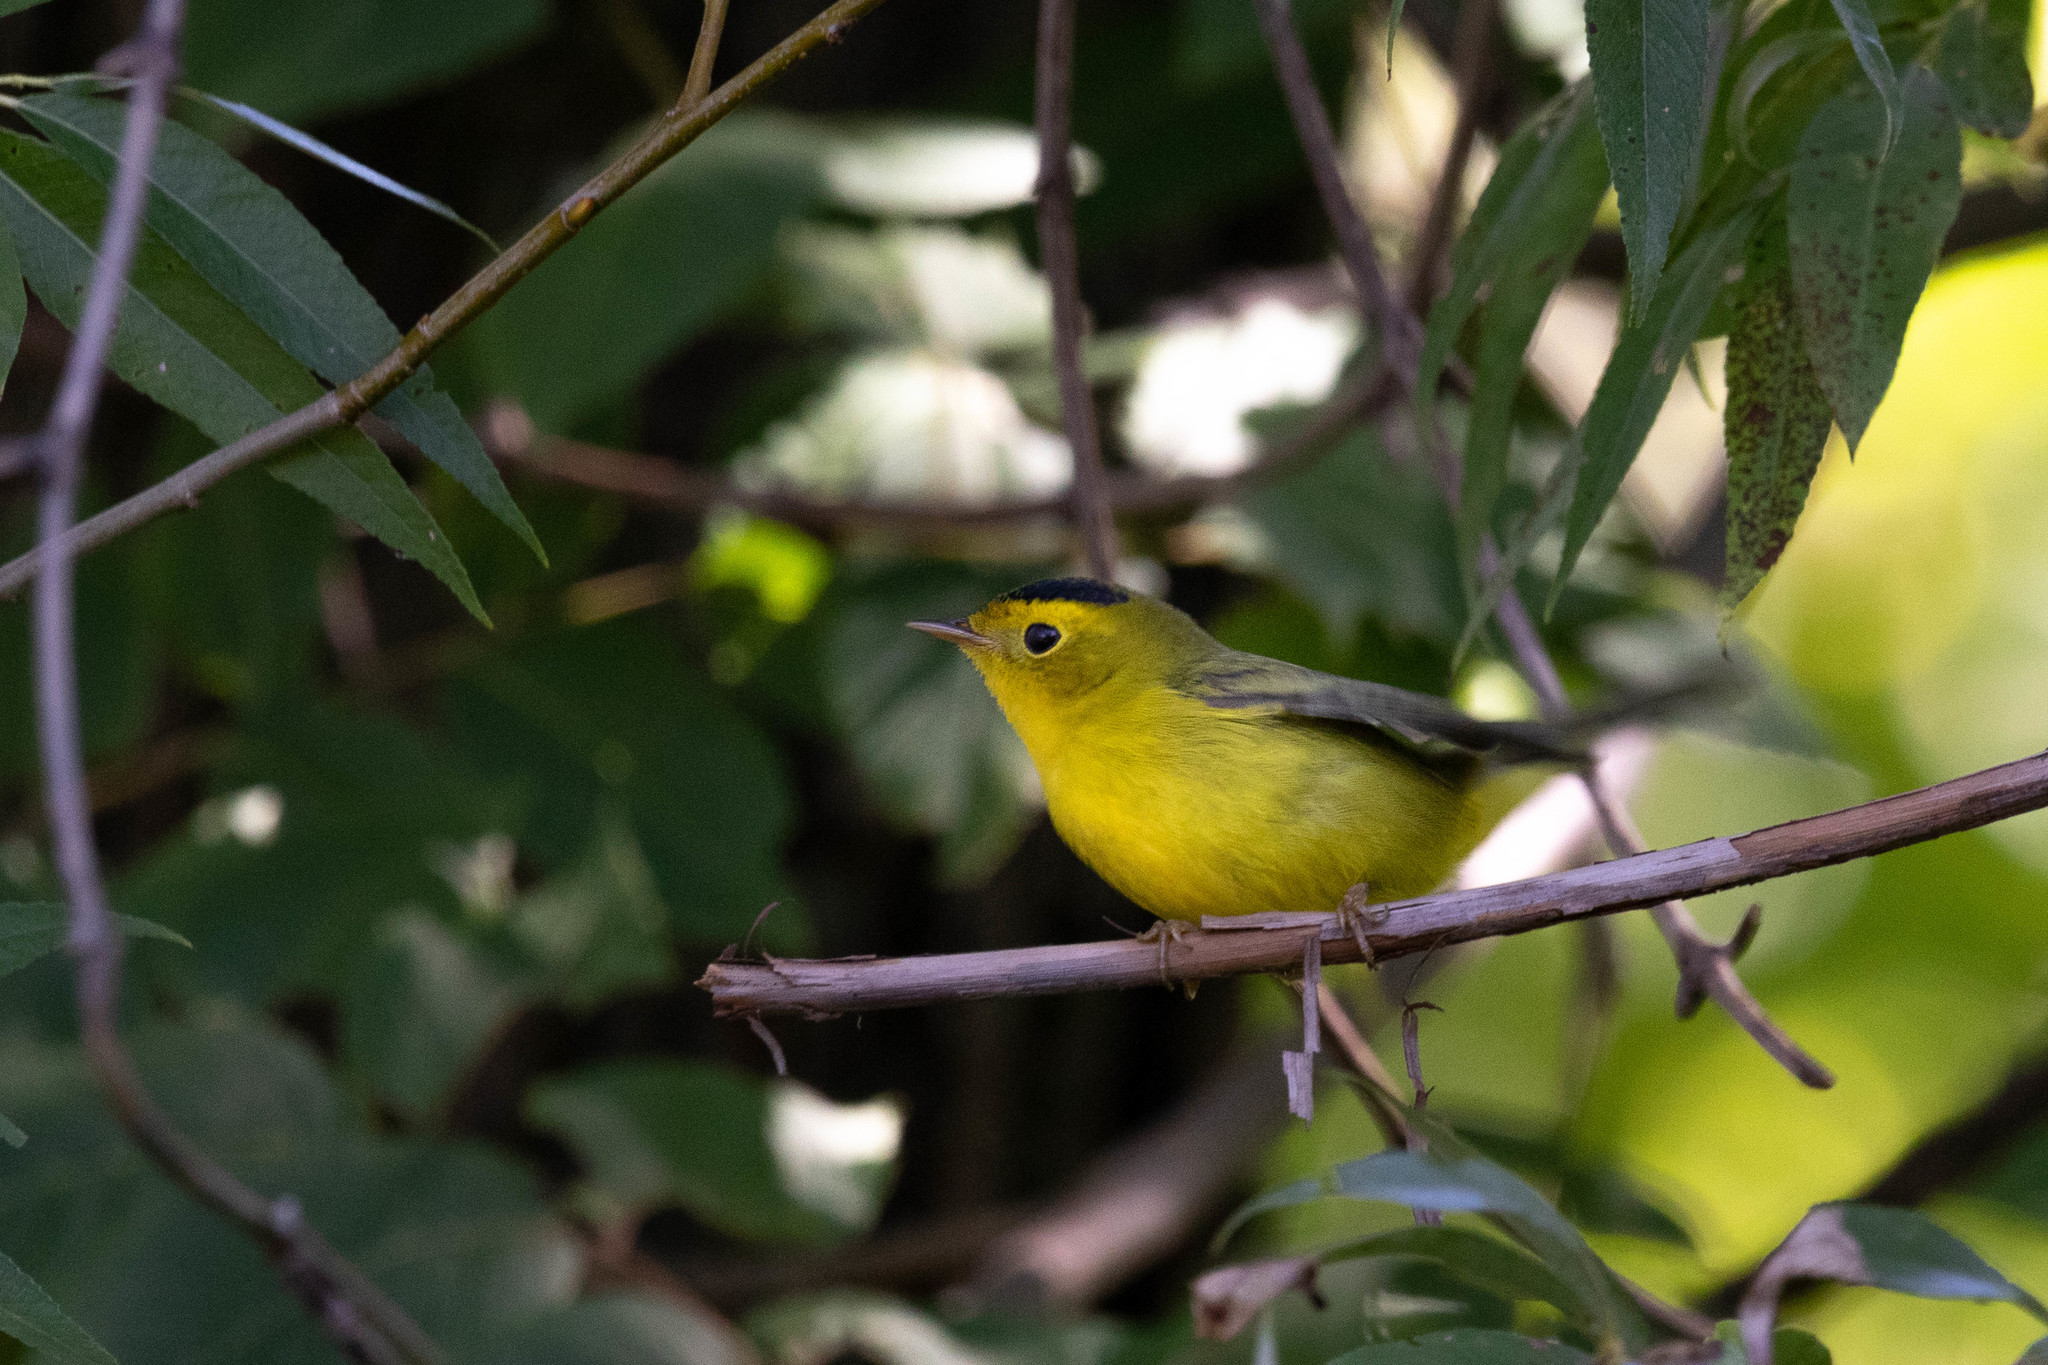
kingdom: Animalia
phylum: Chordata
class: Aves
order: Passeriformes
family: Parulidae
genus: Cardellina
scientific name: Cardellina pusilla
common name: Wilson's warbler
